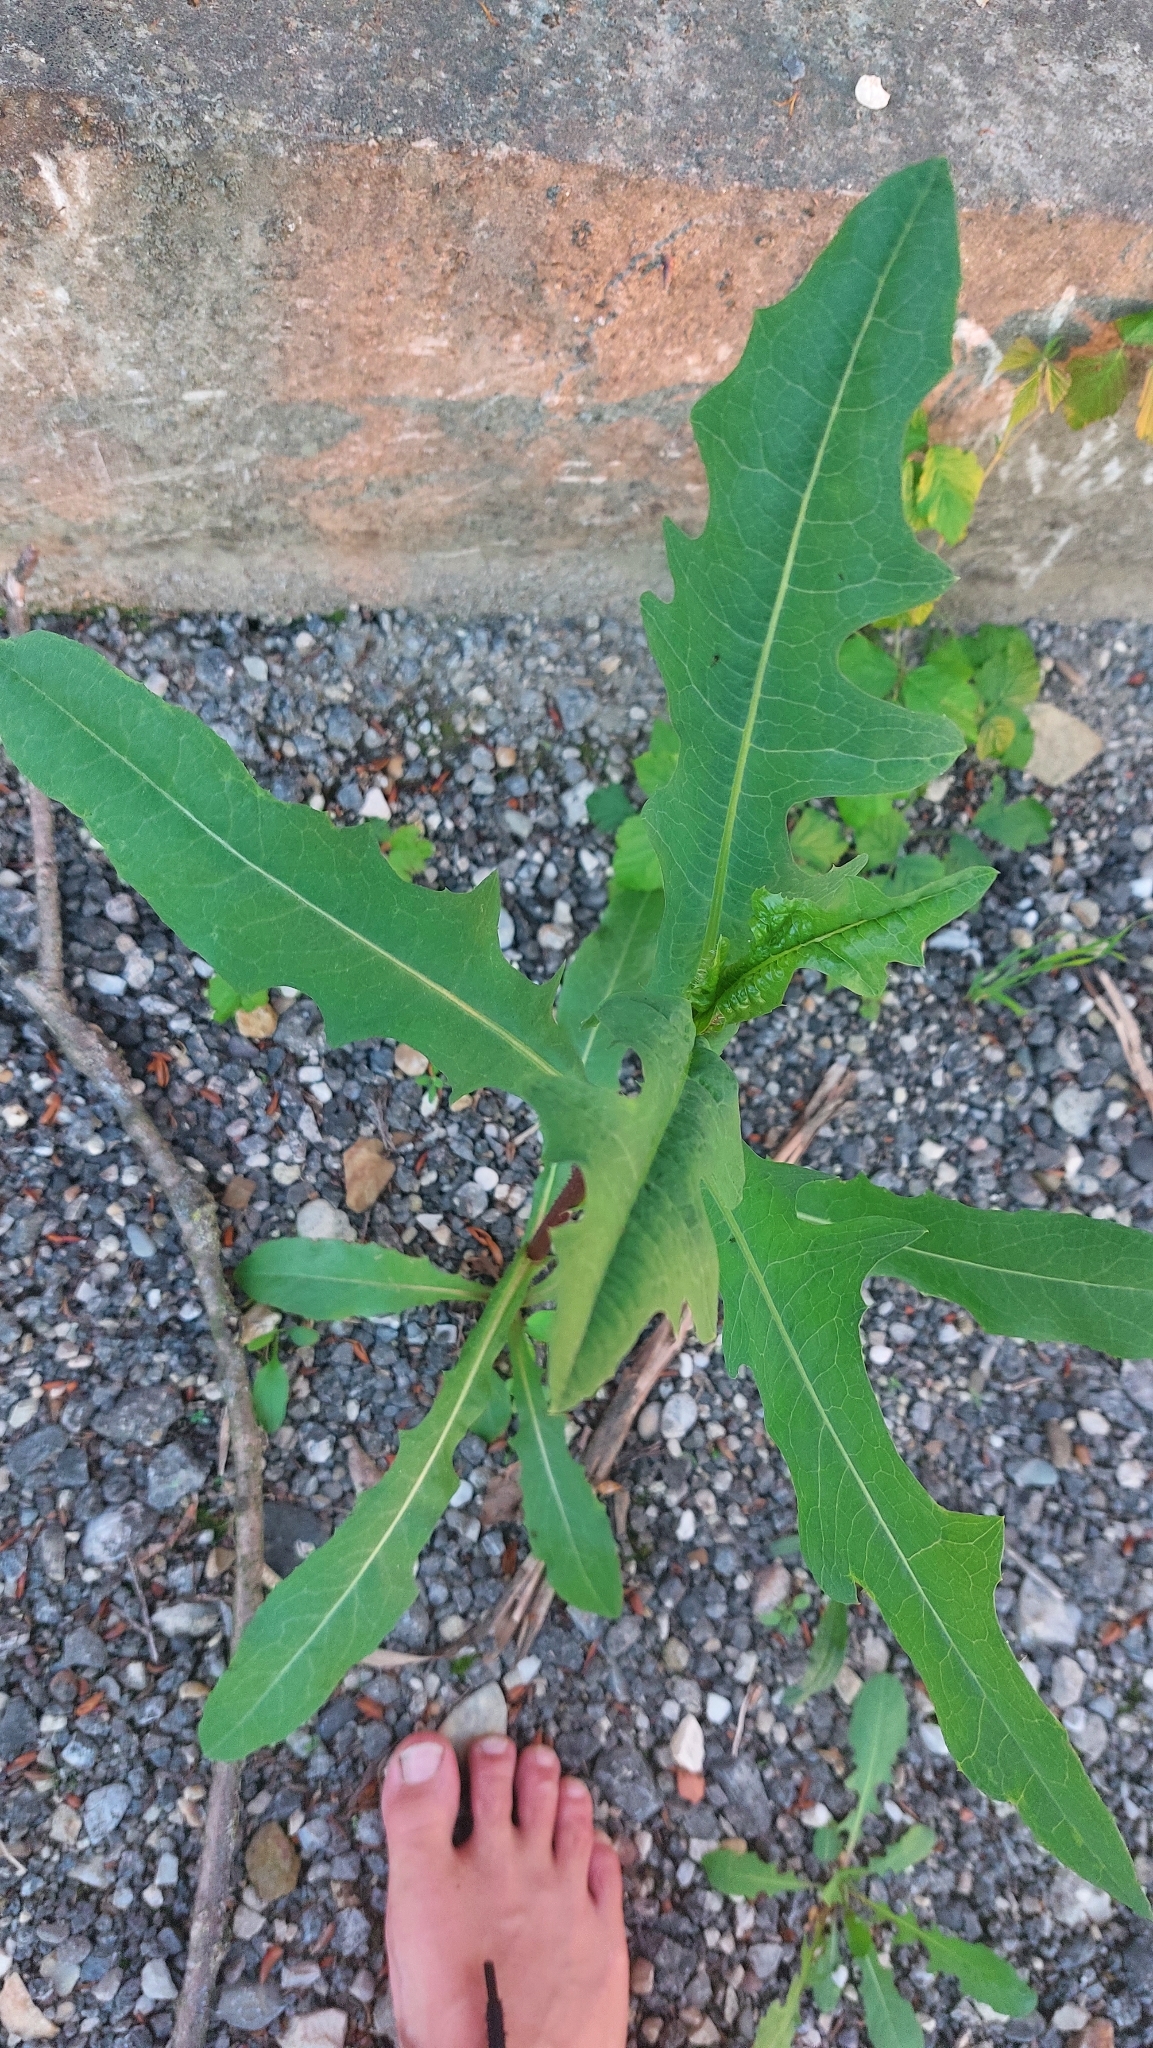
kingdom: Plantae
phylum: Tracheophyta
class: Magnoliopsida
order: Asterales
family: Asteraceae
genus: Lactuca
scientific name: Lactuca serriola
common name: Prickly lettuce
